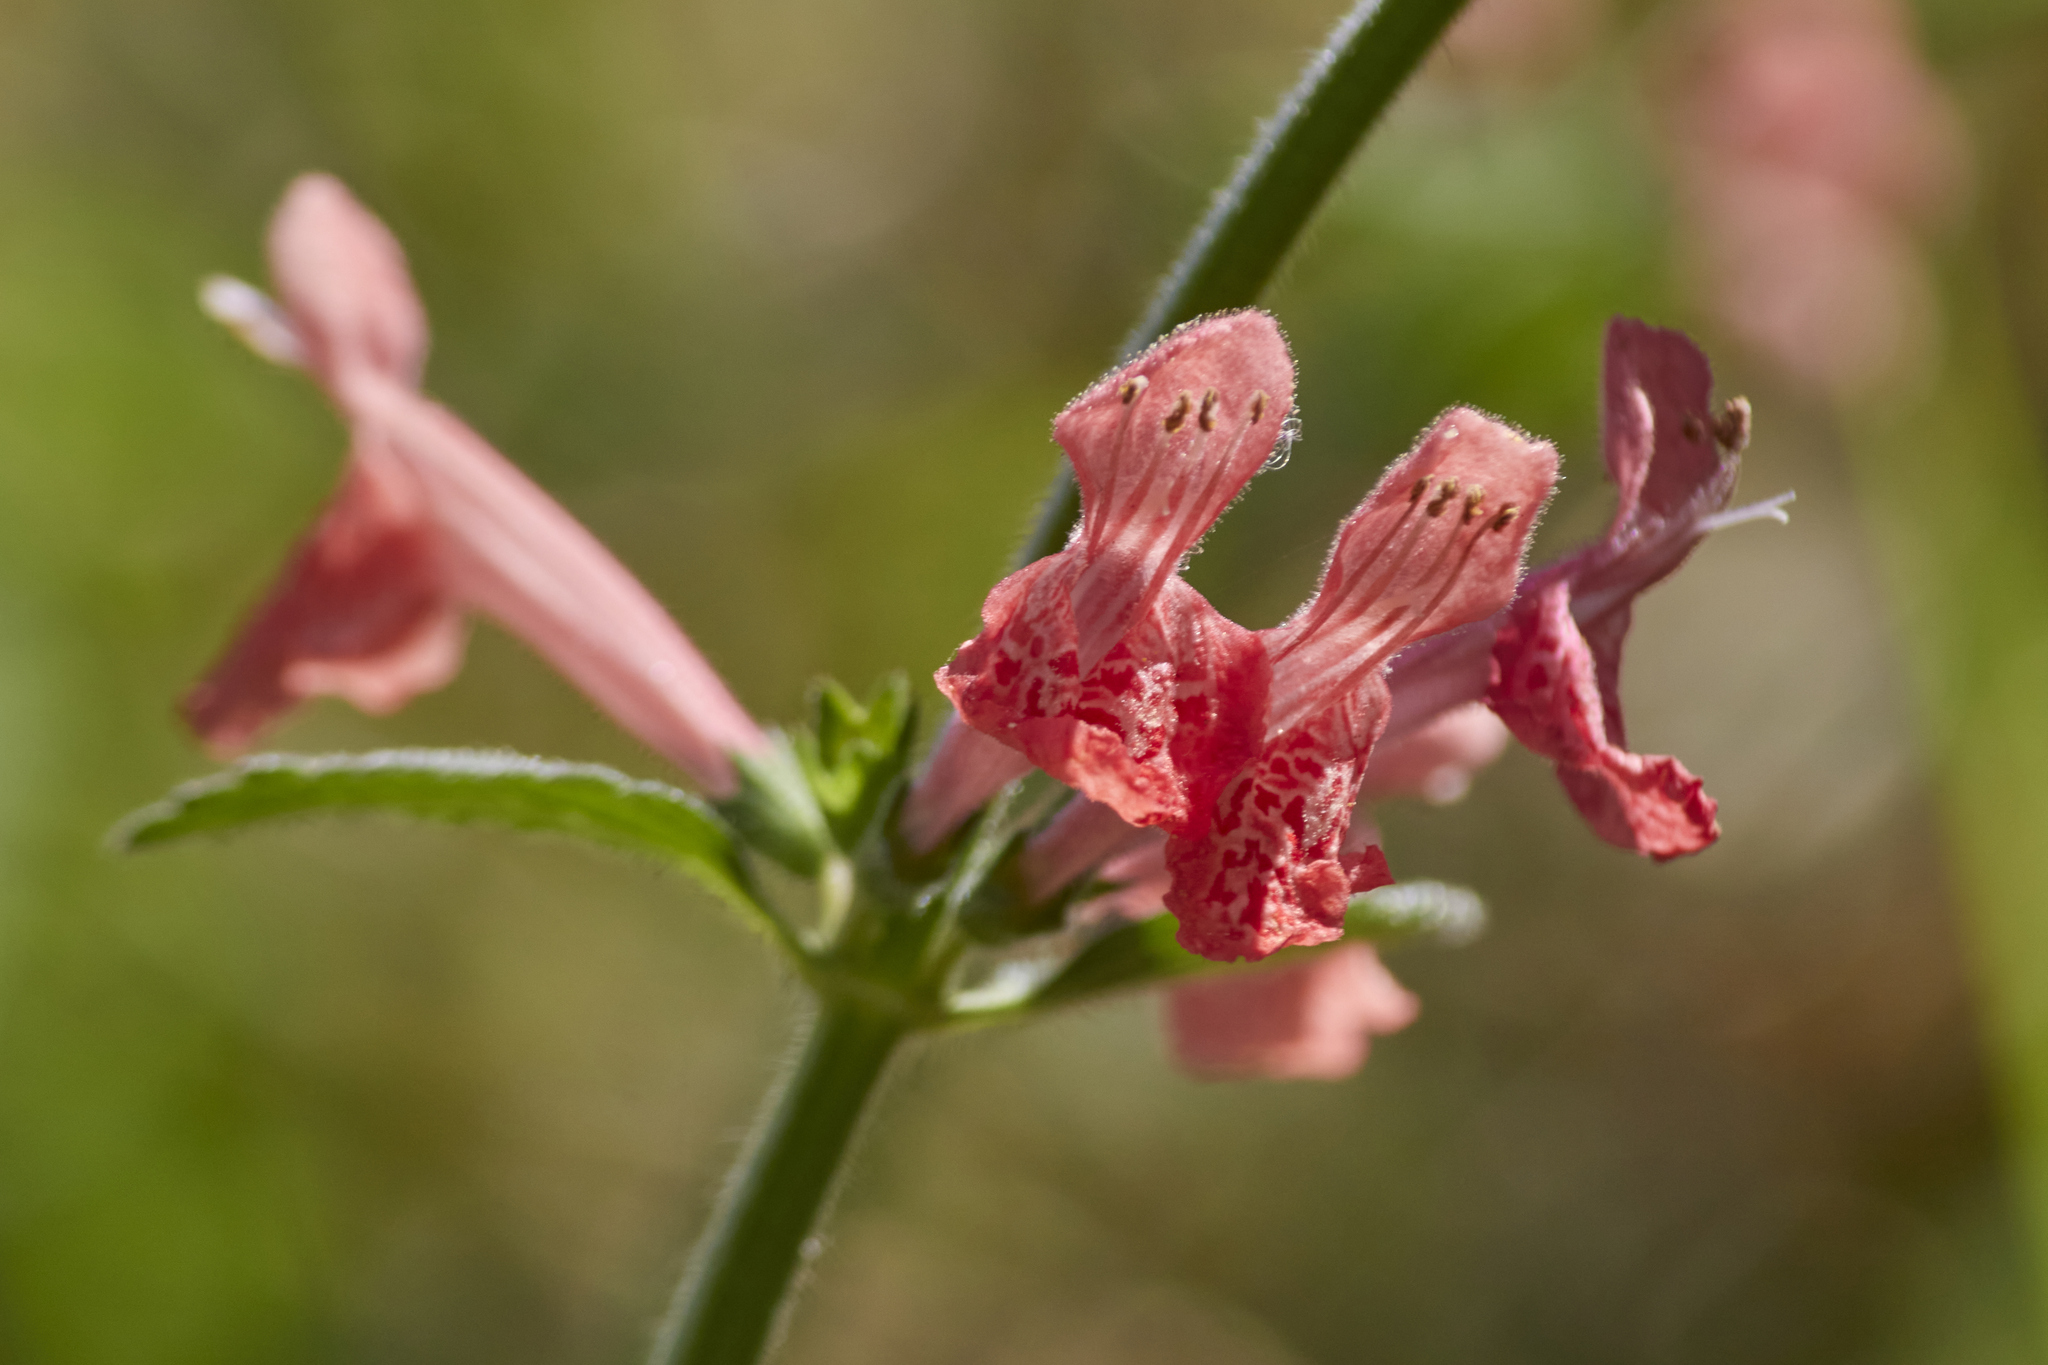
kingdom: Plantae
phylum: Tracheophyta
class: Magnoliopsida
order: Lamiales
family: Lamiaceae
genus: Stachys
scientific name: Stachys coccinea
